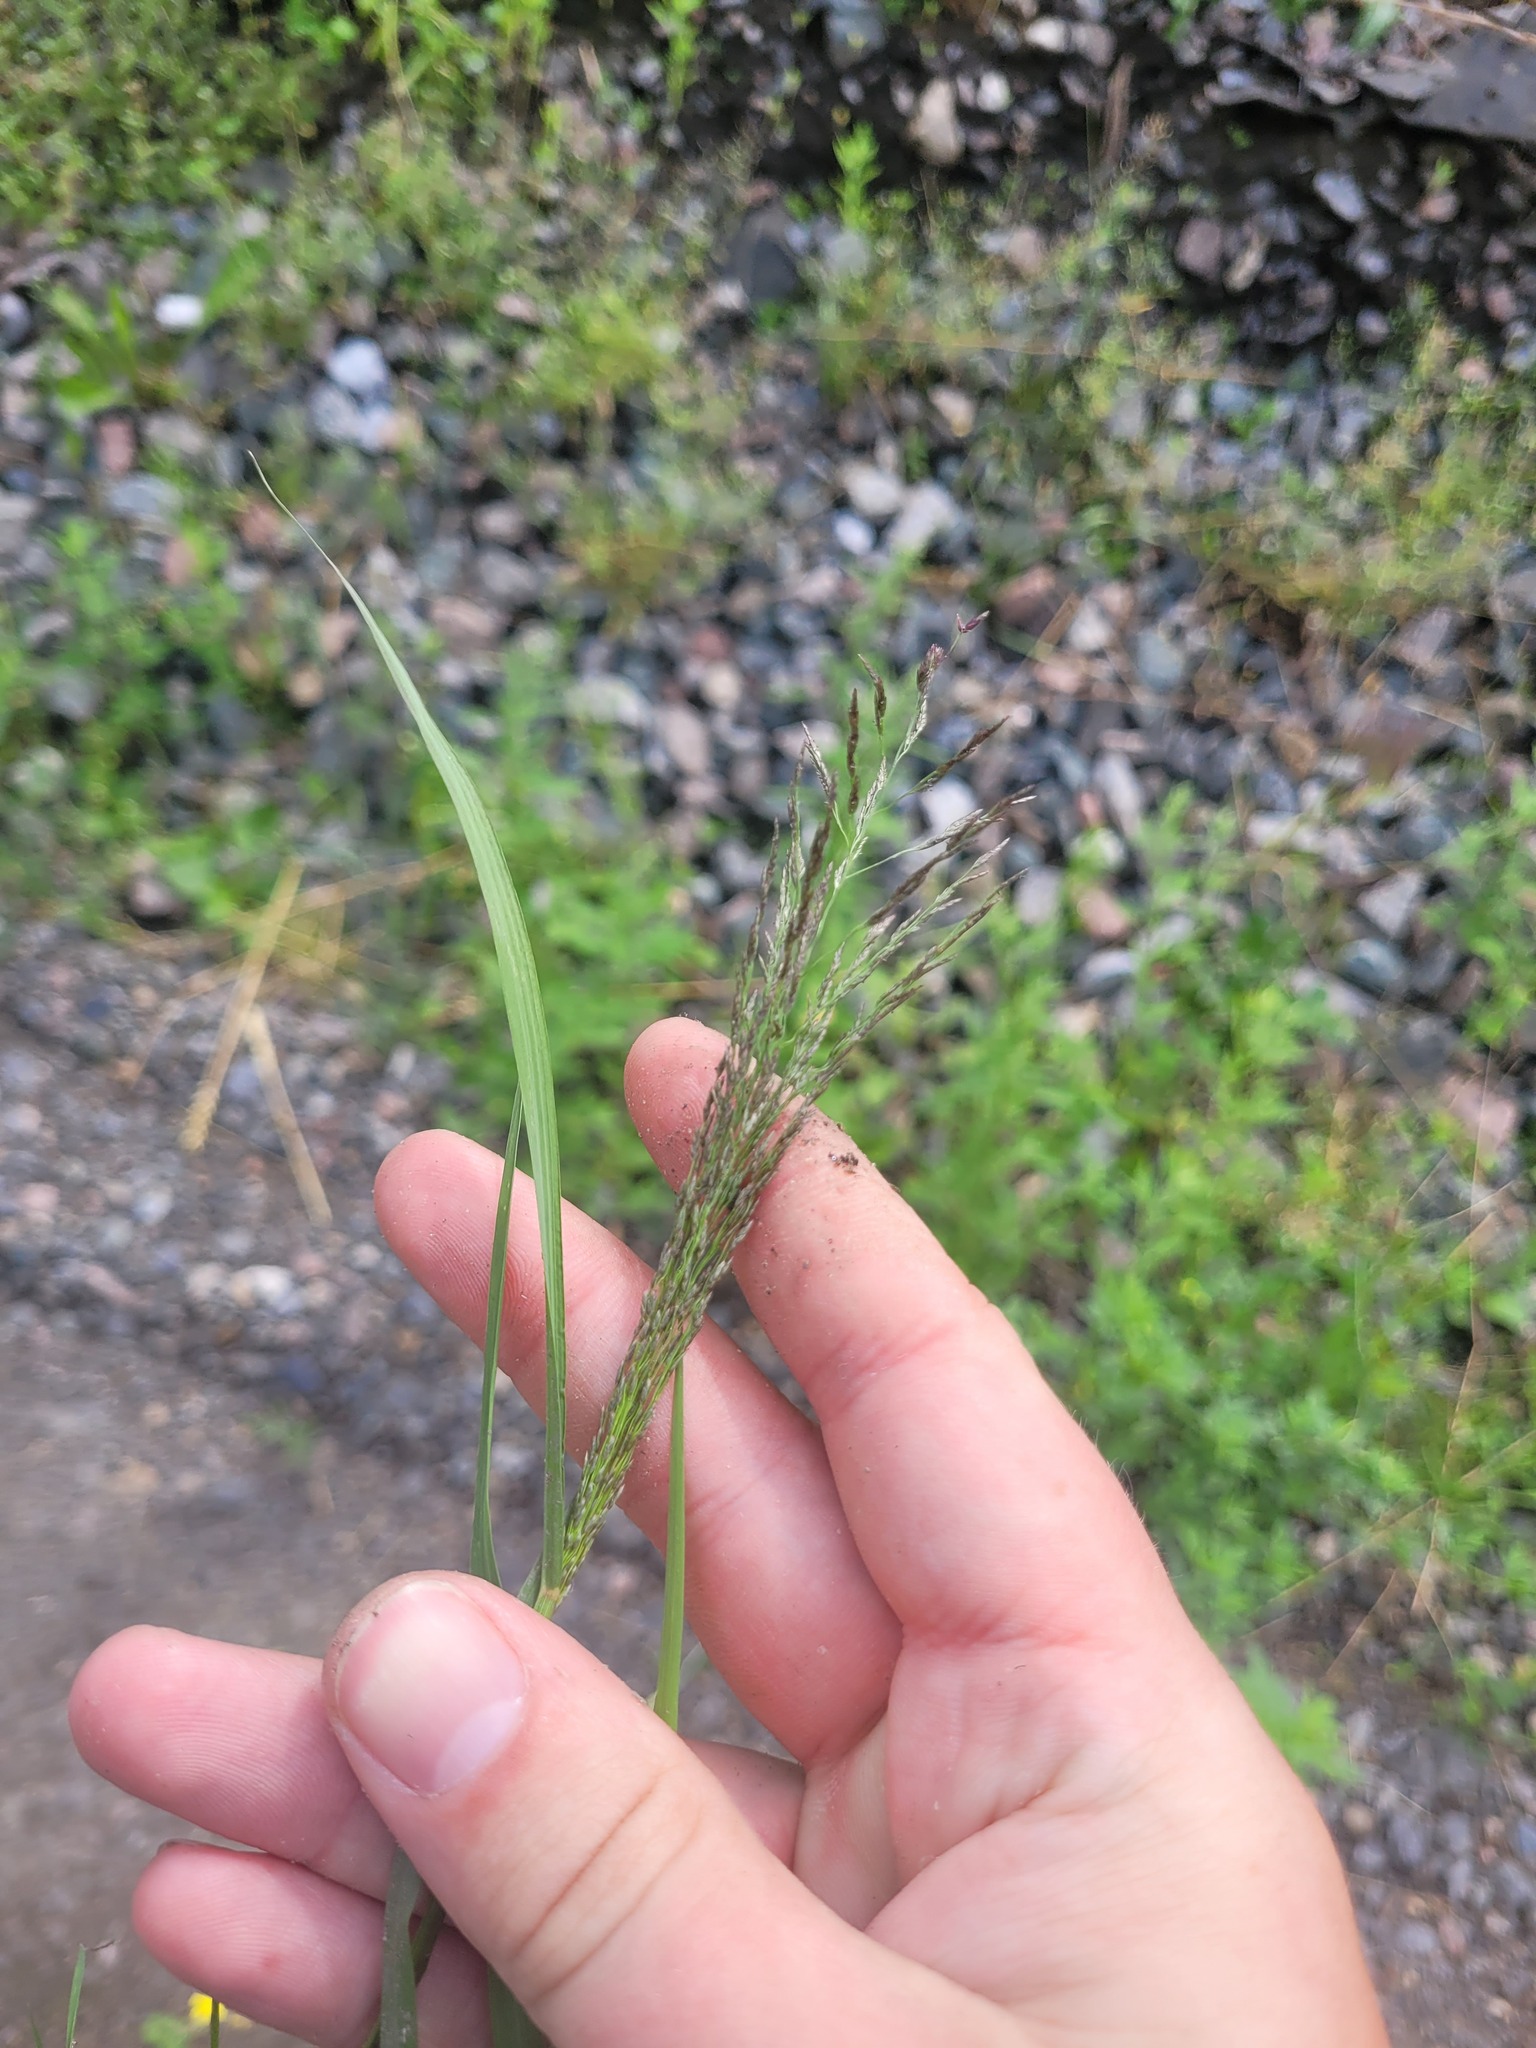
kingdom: Plantae
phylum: Tracheophyta
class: Liliopsida
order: Poales
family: Poaceae
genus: Eragrostis
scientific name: Eragrostis pilosa
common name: Indian lovegrass
